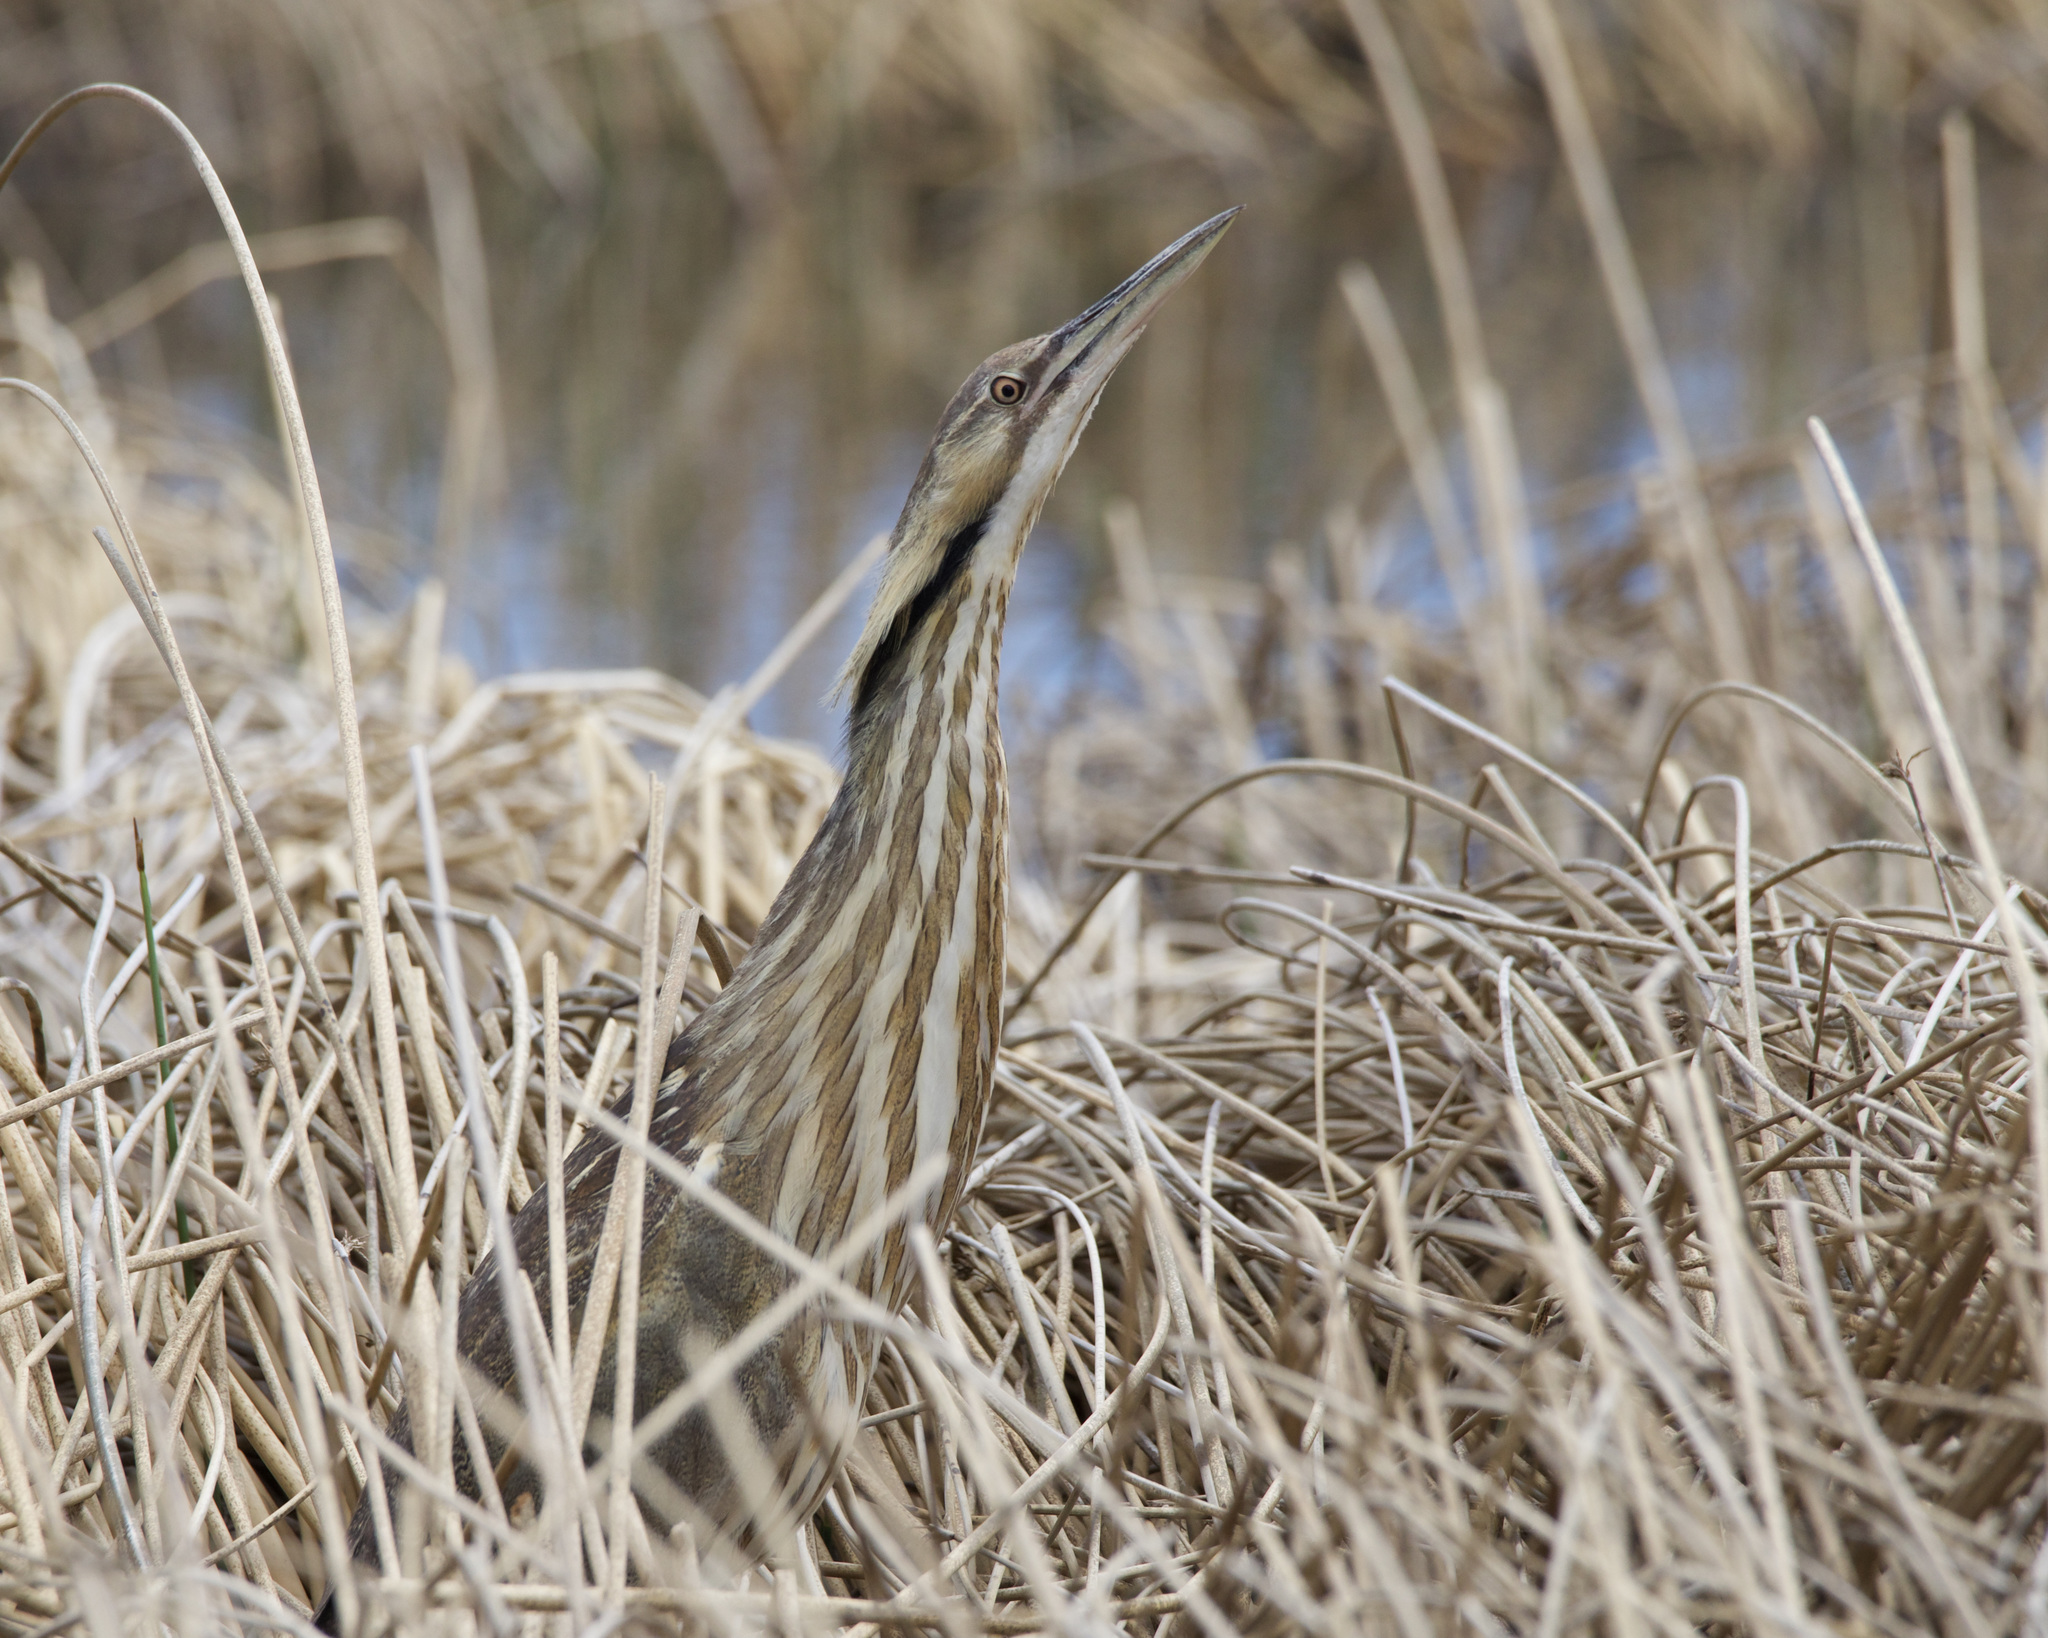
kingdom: Animalia
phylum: Chordata
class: Aves
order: Pelecaniformes
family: Ardeidae
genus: Botaurus
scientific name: Botaurus lentiginosus
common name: American bittern
